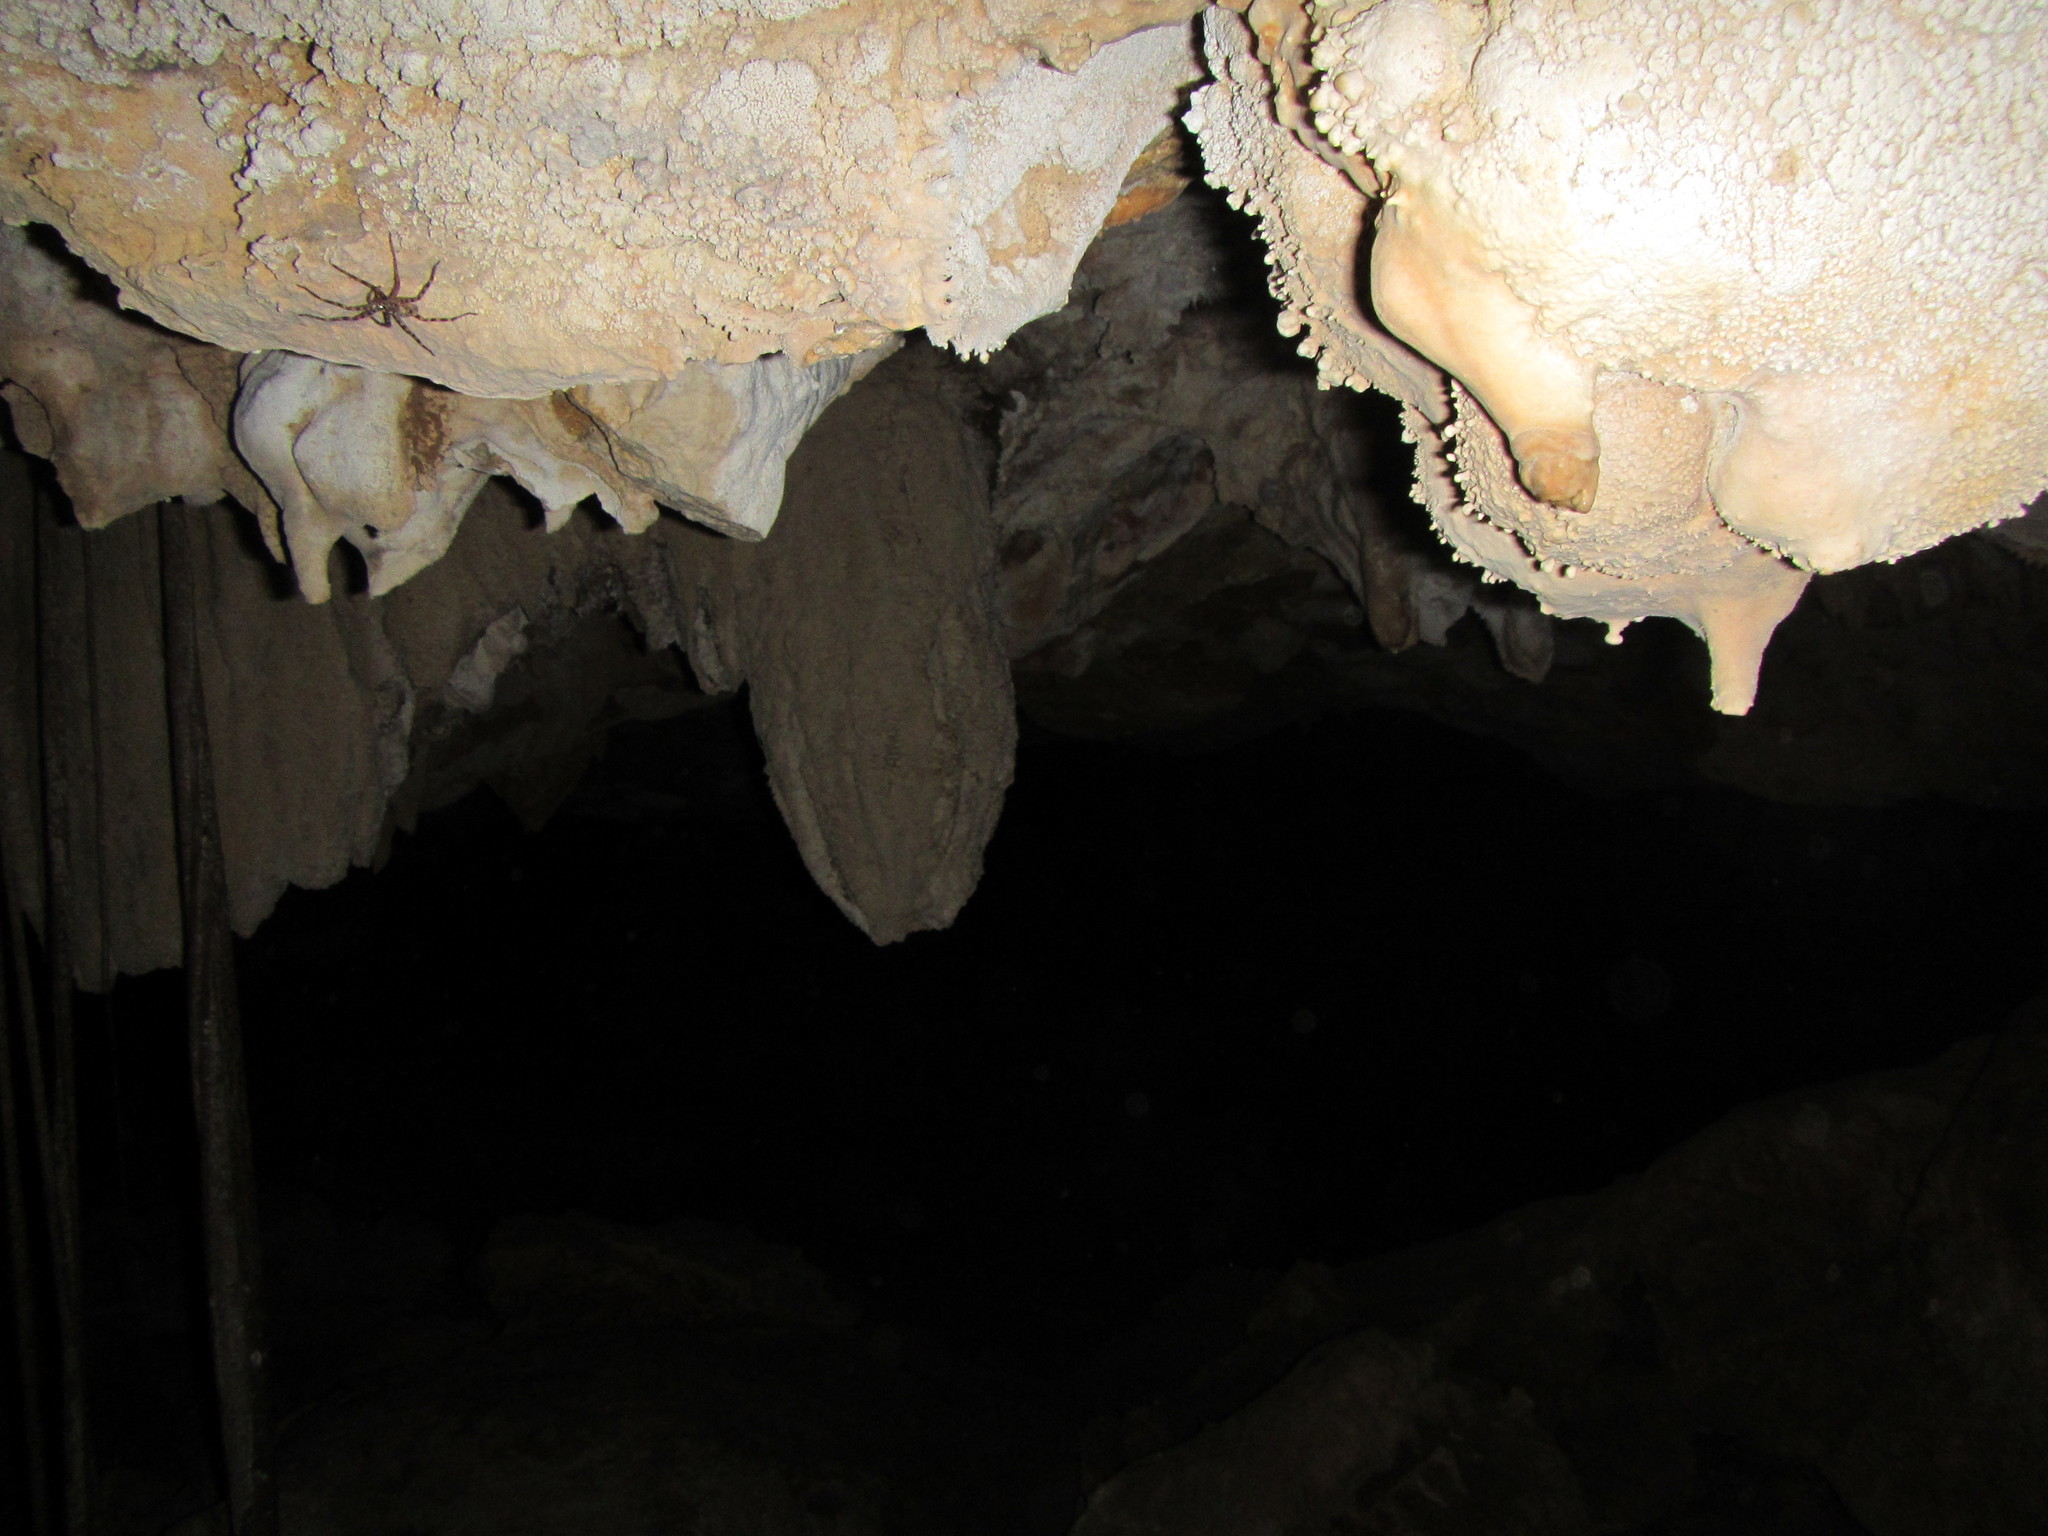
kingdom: Animalia
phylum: Arthropoda
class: Arachnida
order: Araneae
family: Sparassidae
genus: Yiinthi
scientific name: Yiinthi chillagoe
